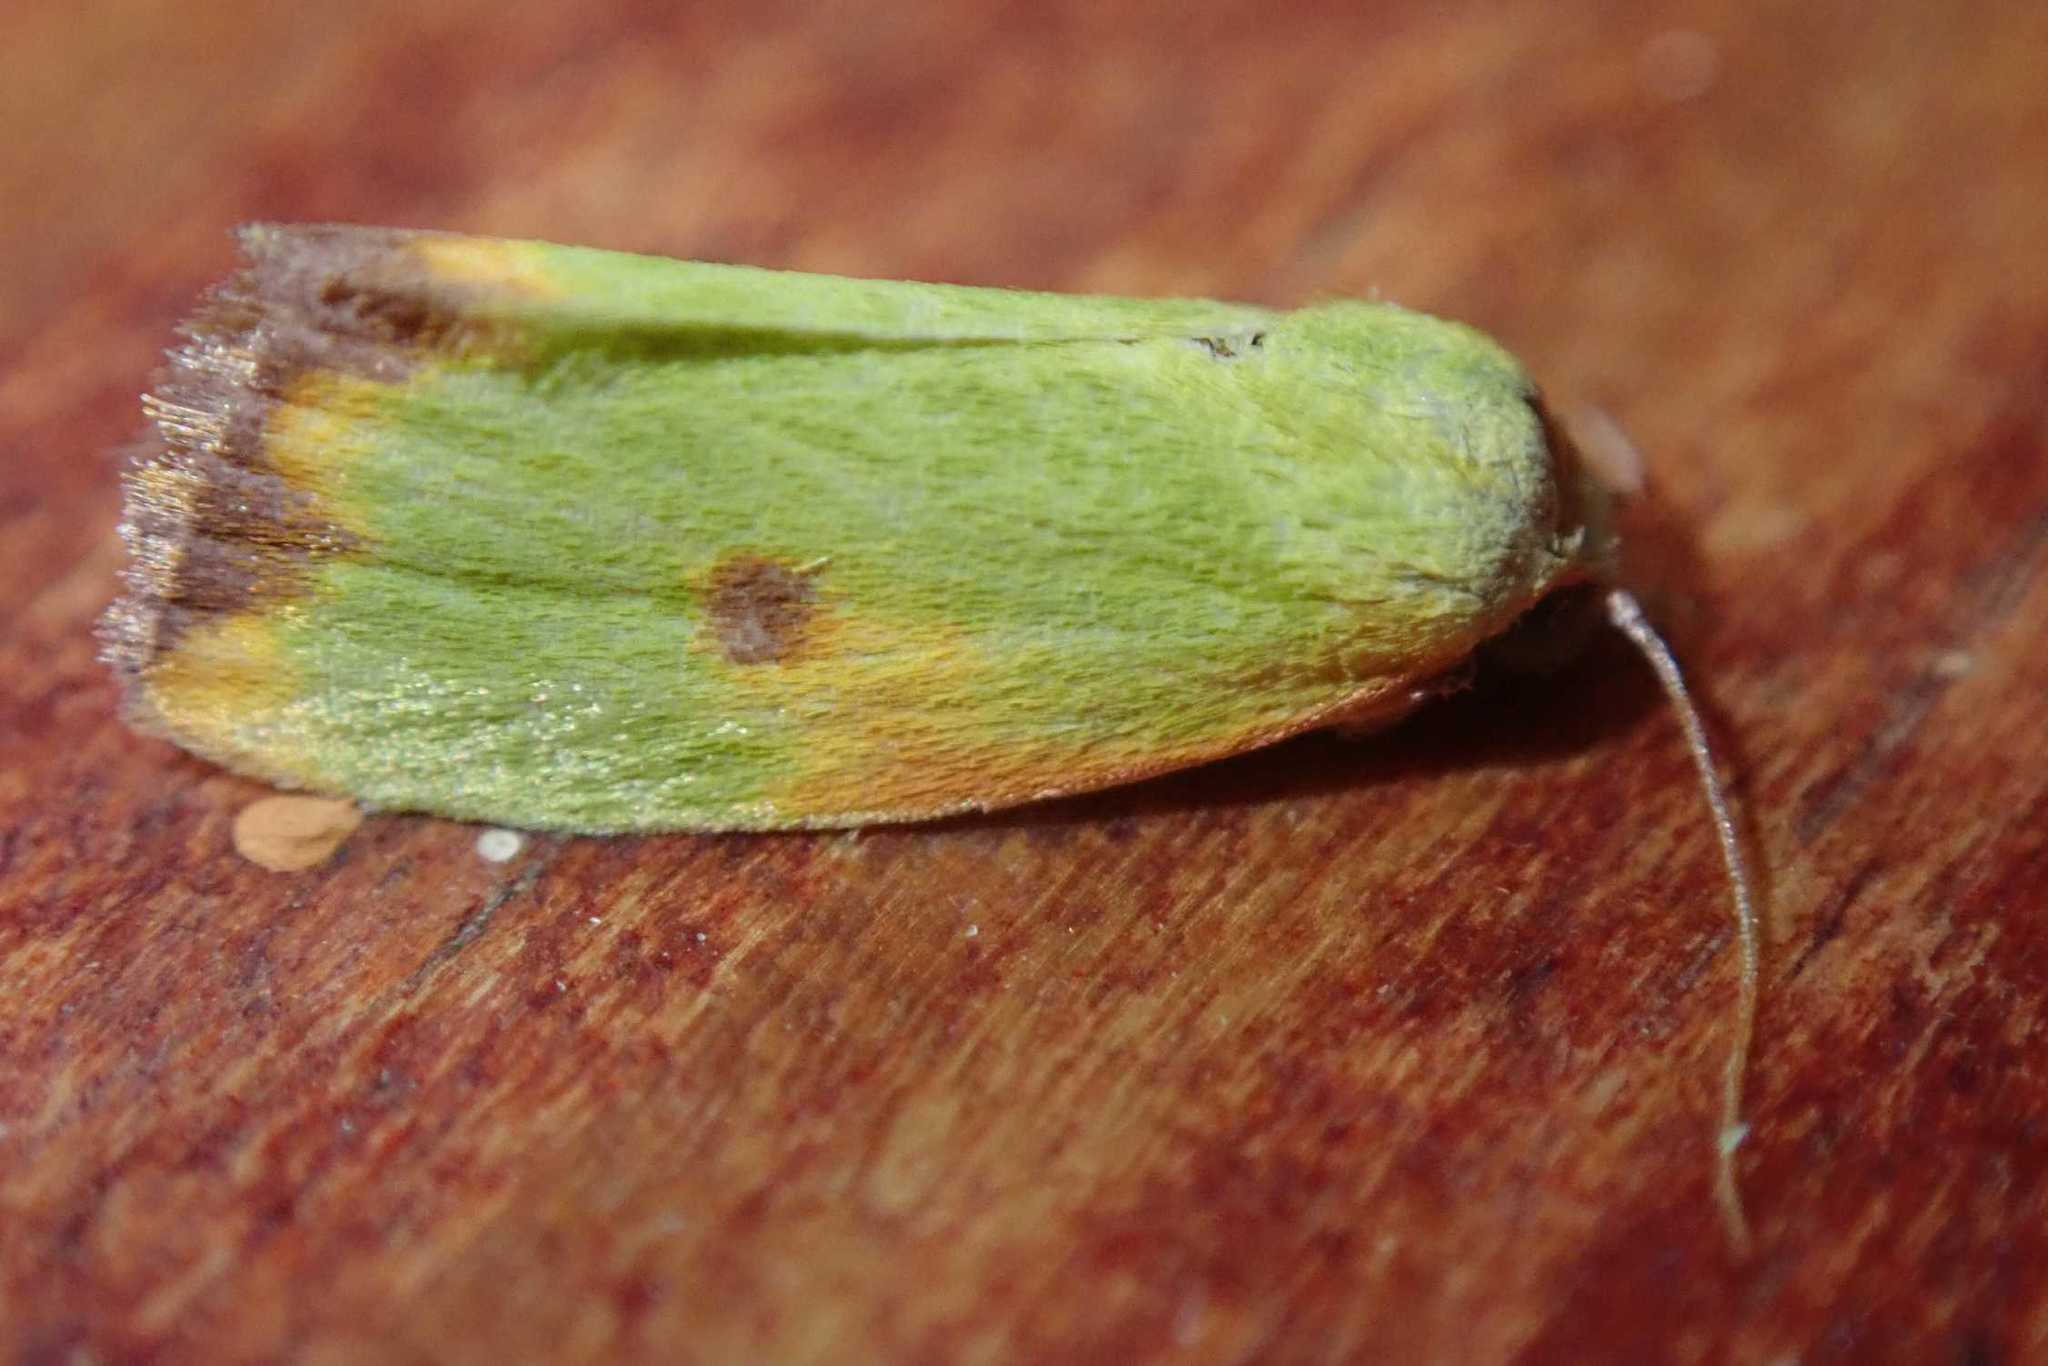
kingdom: Animalia
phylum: Arthropoda
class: Insecta
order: Lepidoptera
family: Nolidae
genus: Earias
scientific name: Earias cupreoviridis
